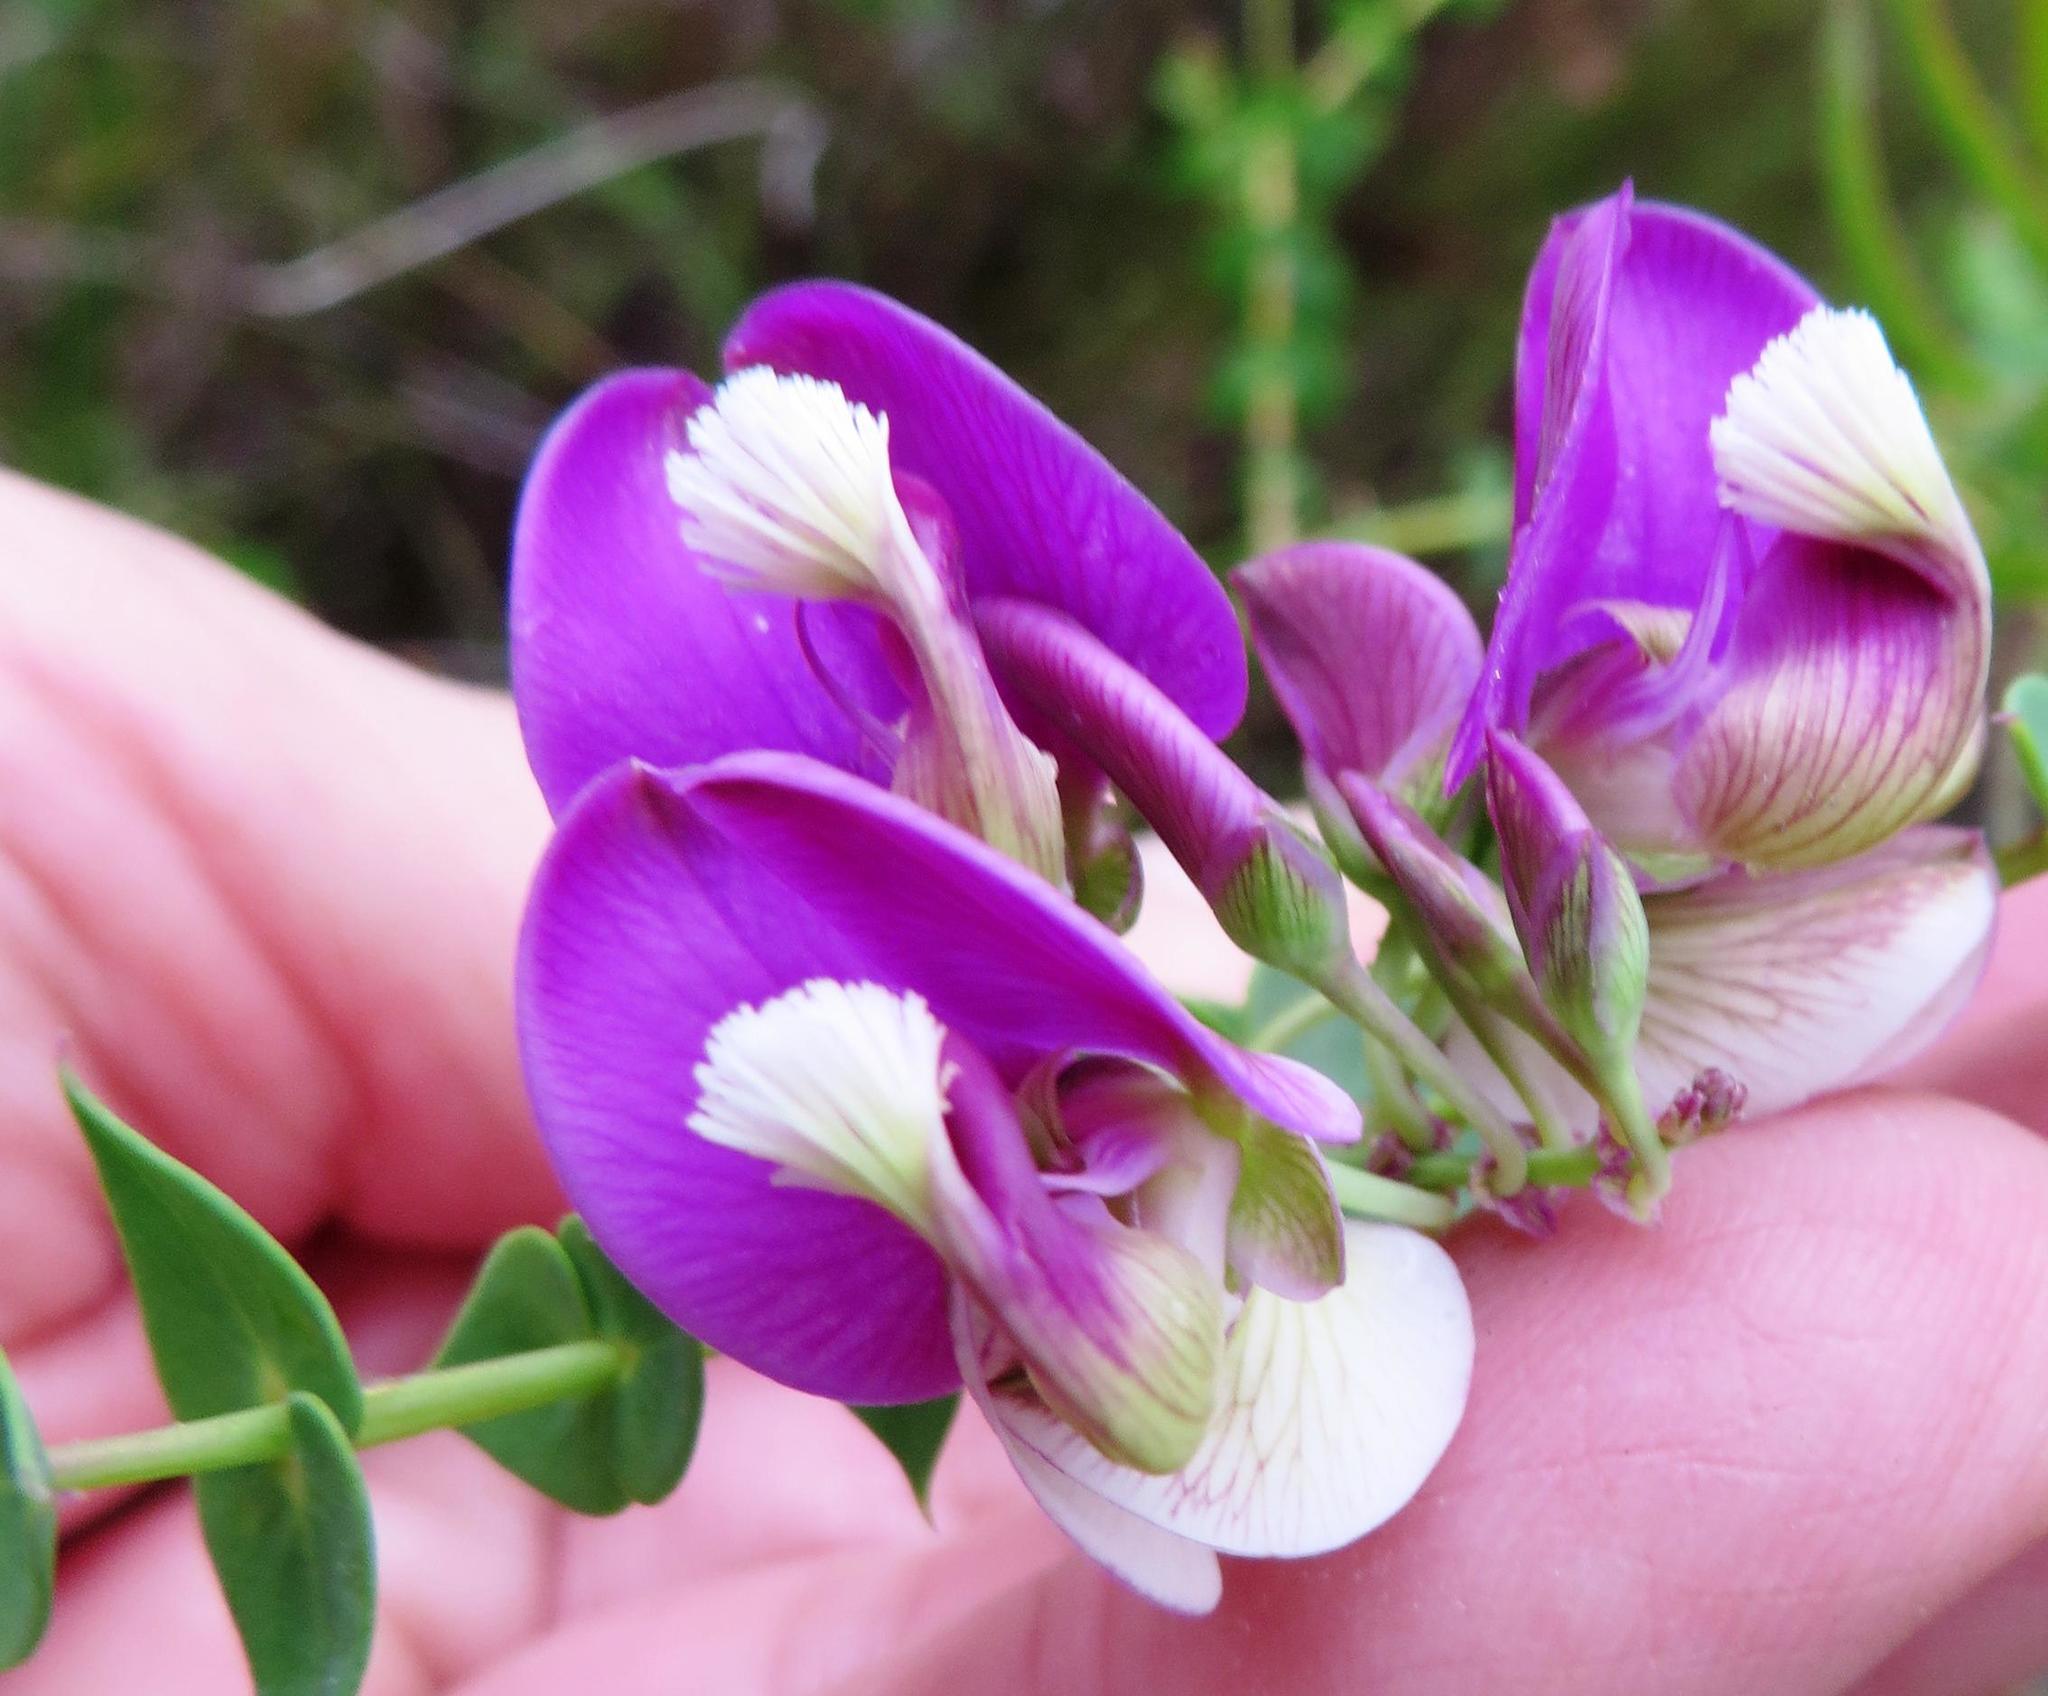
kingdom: Plantae
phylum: Tracheophyta
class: Magnoliopsida
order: Fabales
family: Polygalaceae
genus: Polygala
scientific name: Polygala fruticosa
